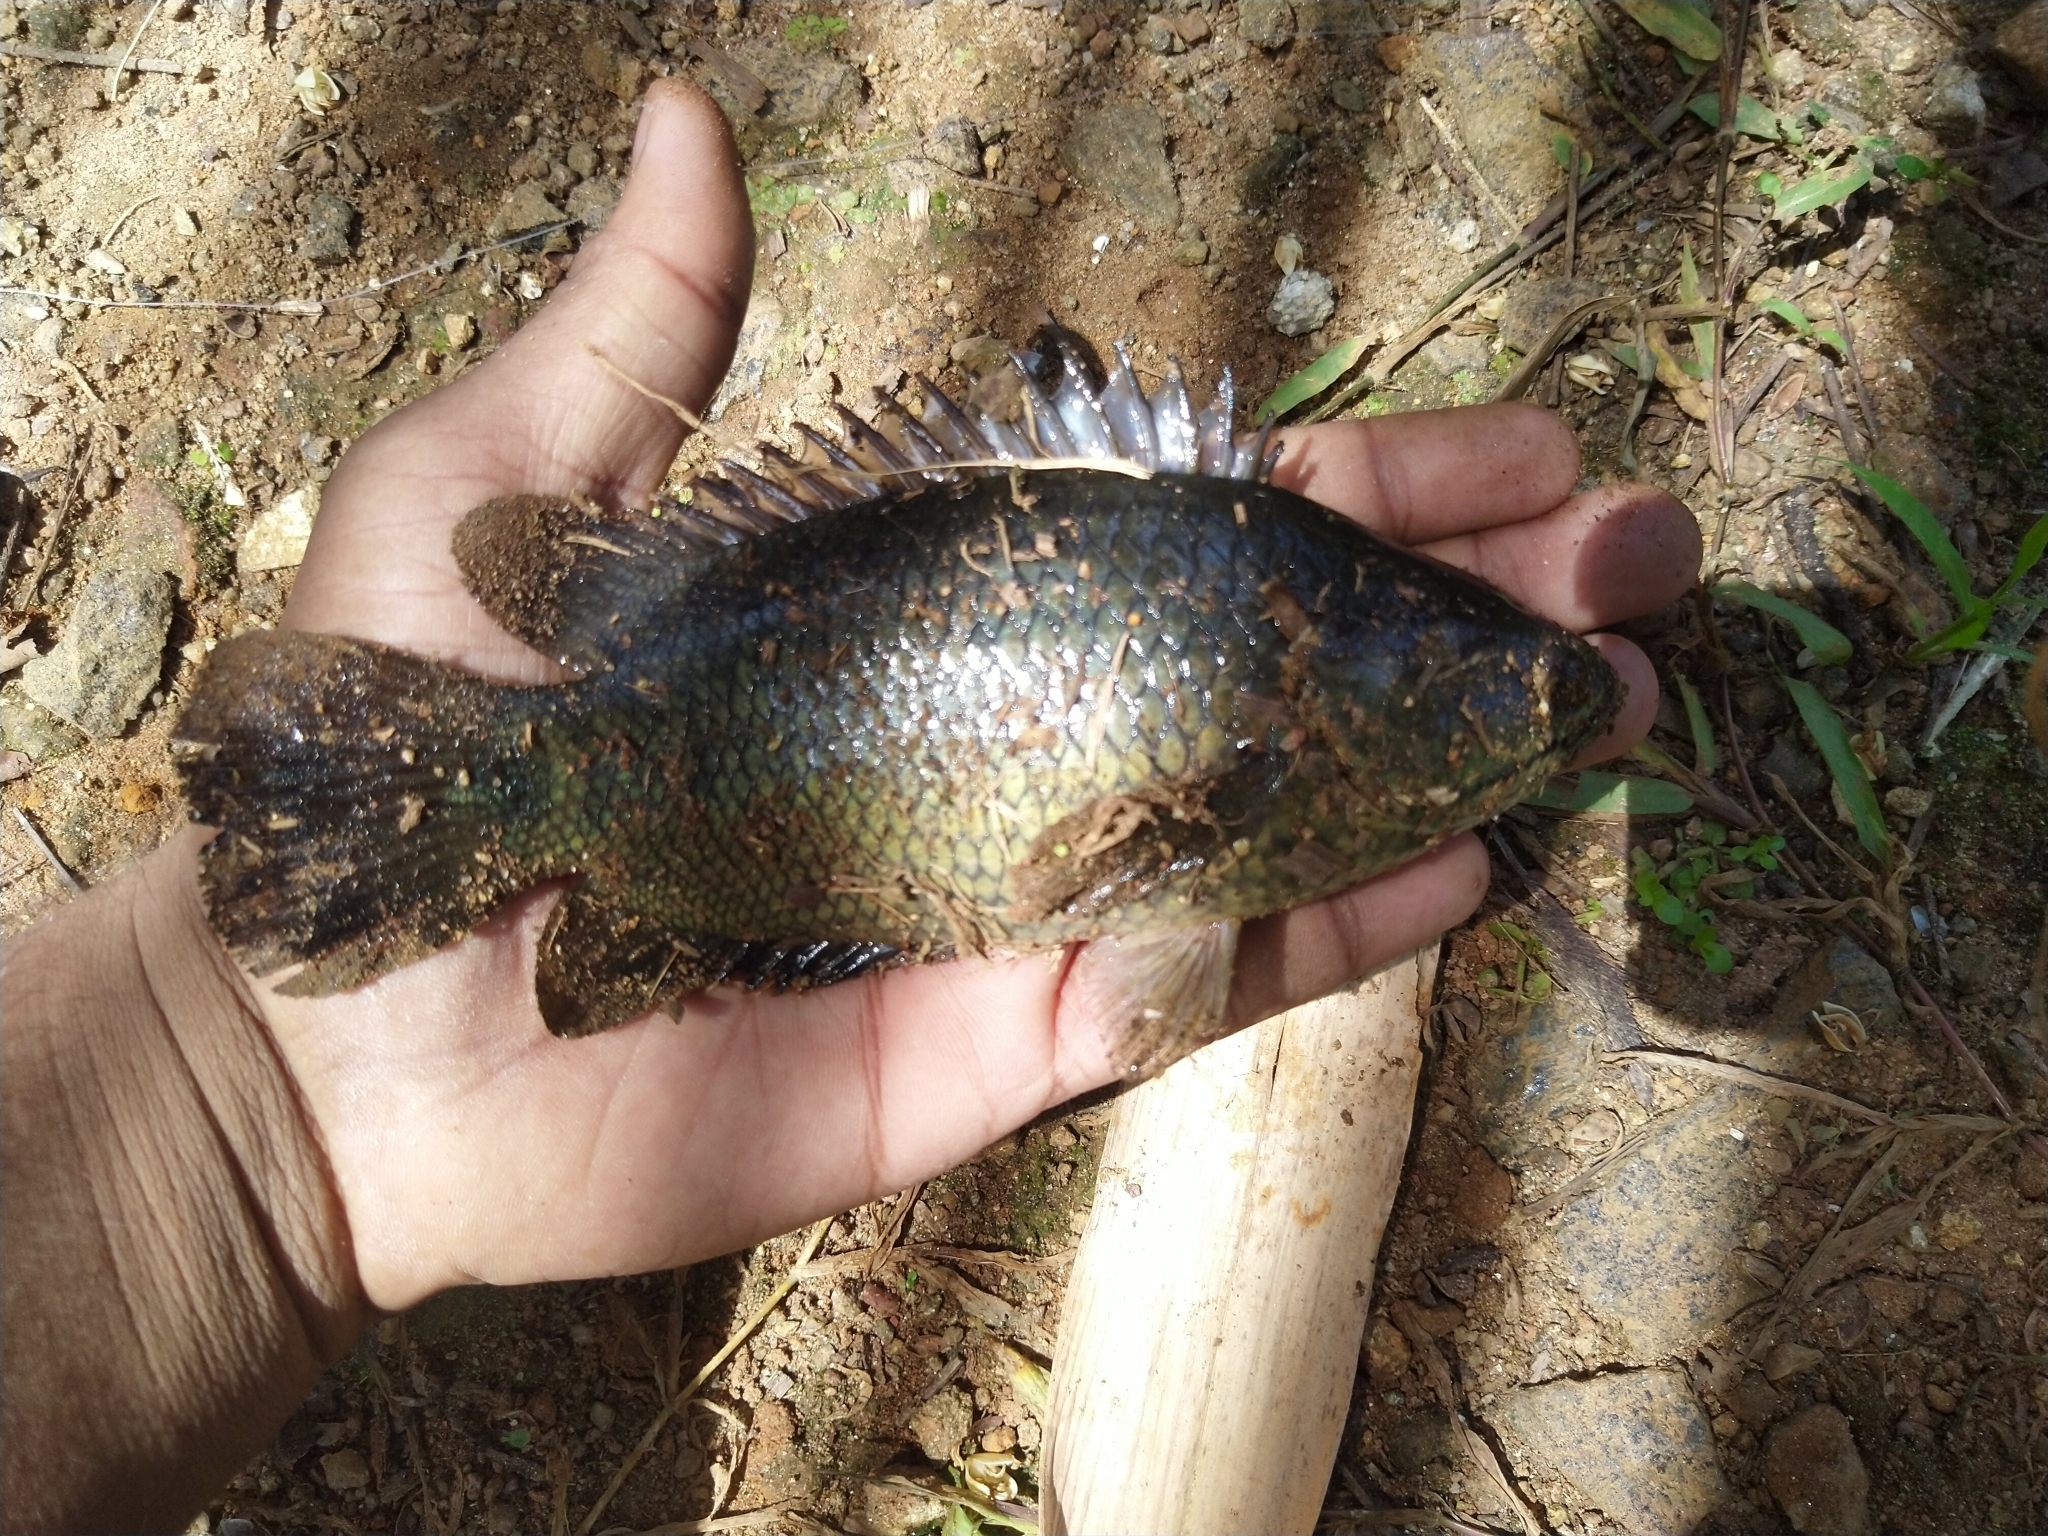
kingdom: Animalia
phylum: Chordata
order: Perciformes
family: Anabantidae
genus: Anabas
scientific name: Anabas testudineus
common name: Climbing perch
